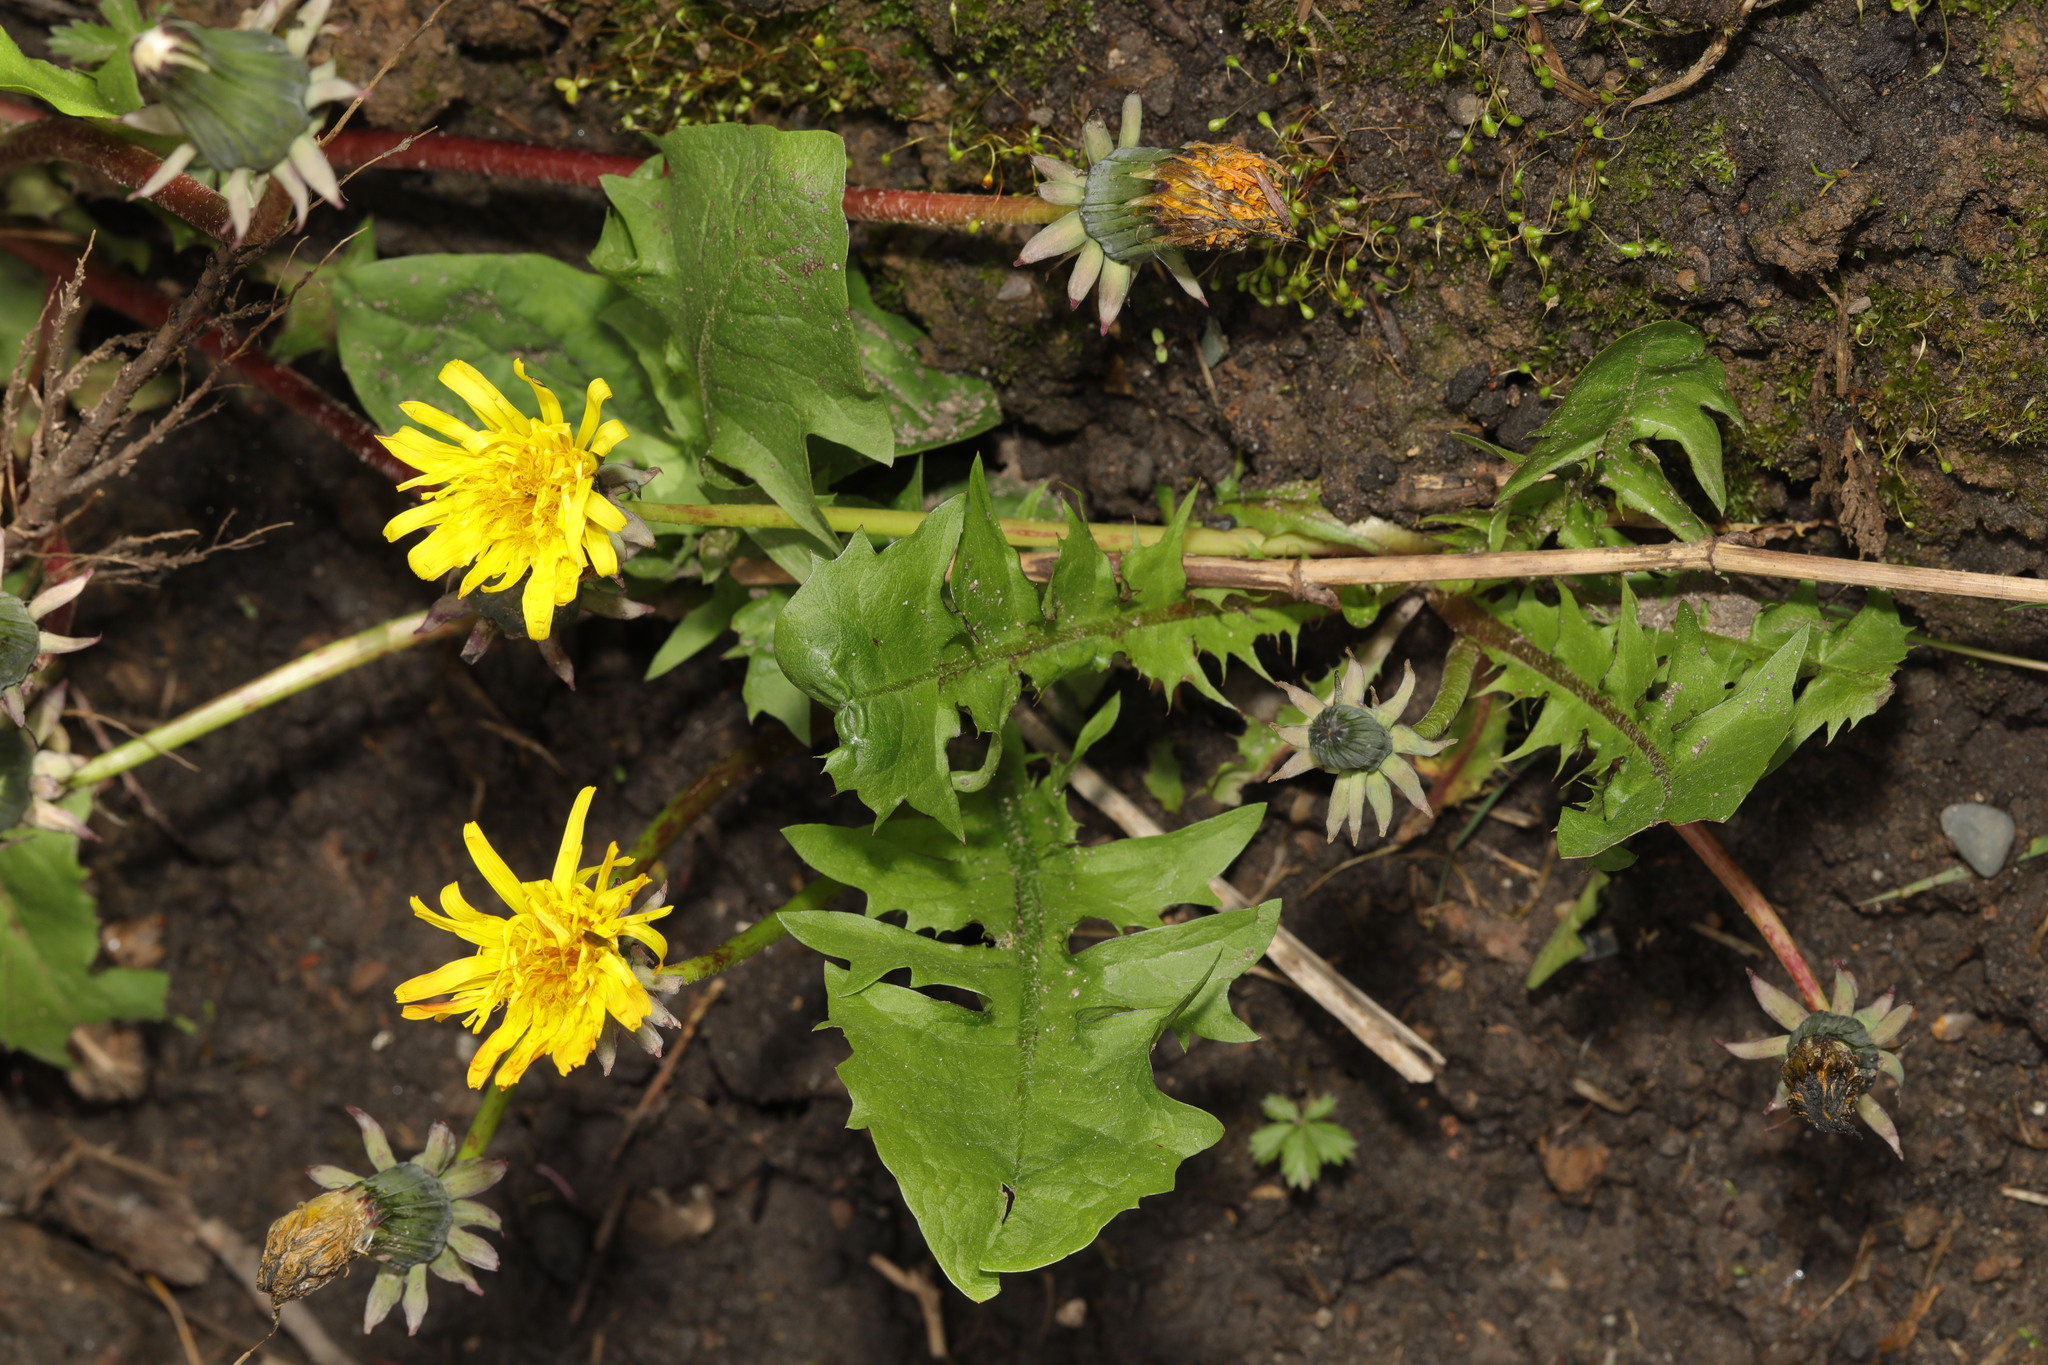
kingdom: Plantae
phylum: Tracheophyta
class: Magnoliopsida
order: Asterales
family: Asteraceae
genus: Taraxacum
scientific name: Taraxacum officinale
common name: Common dandelion
